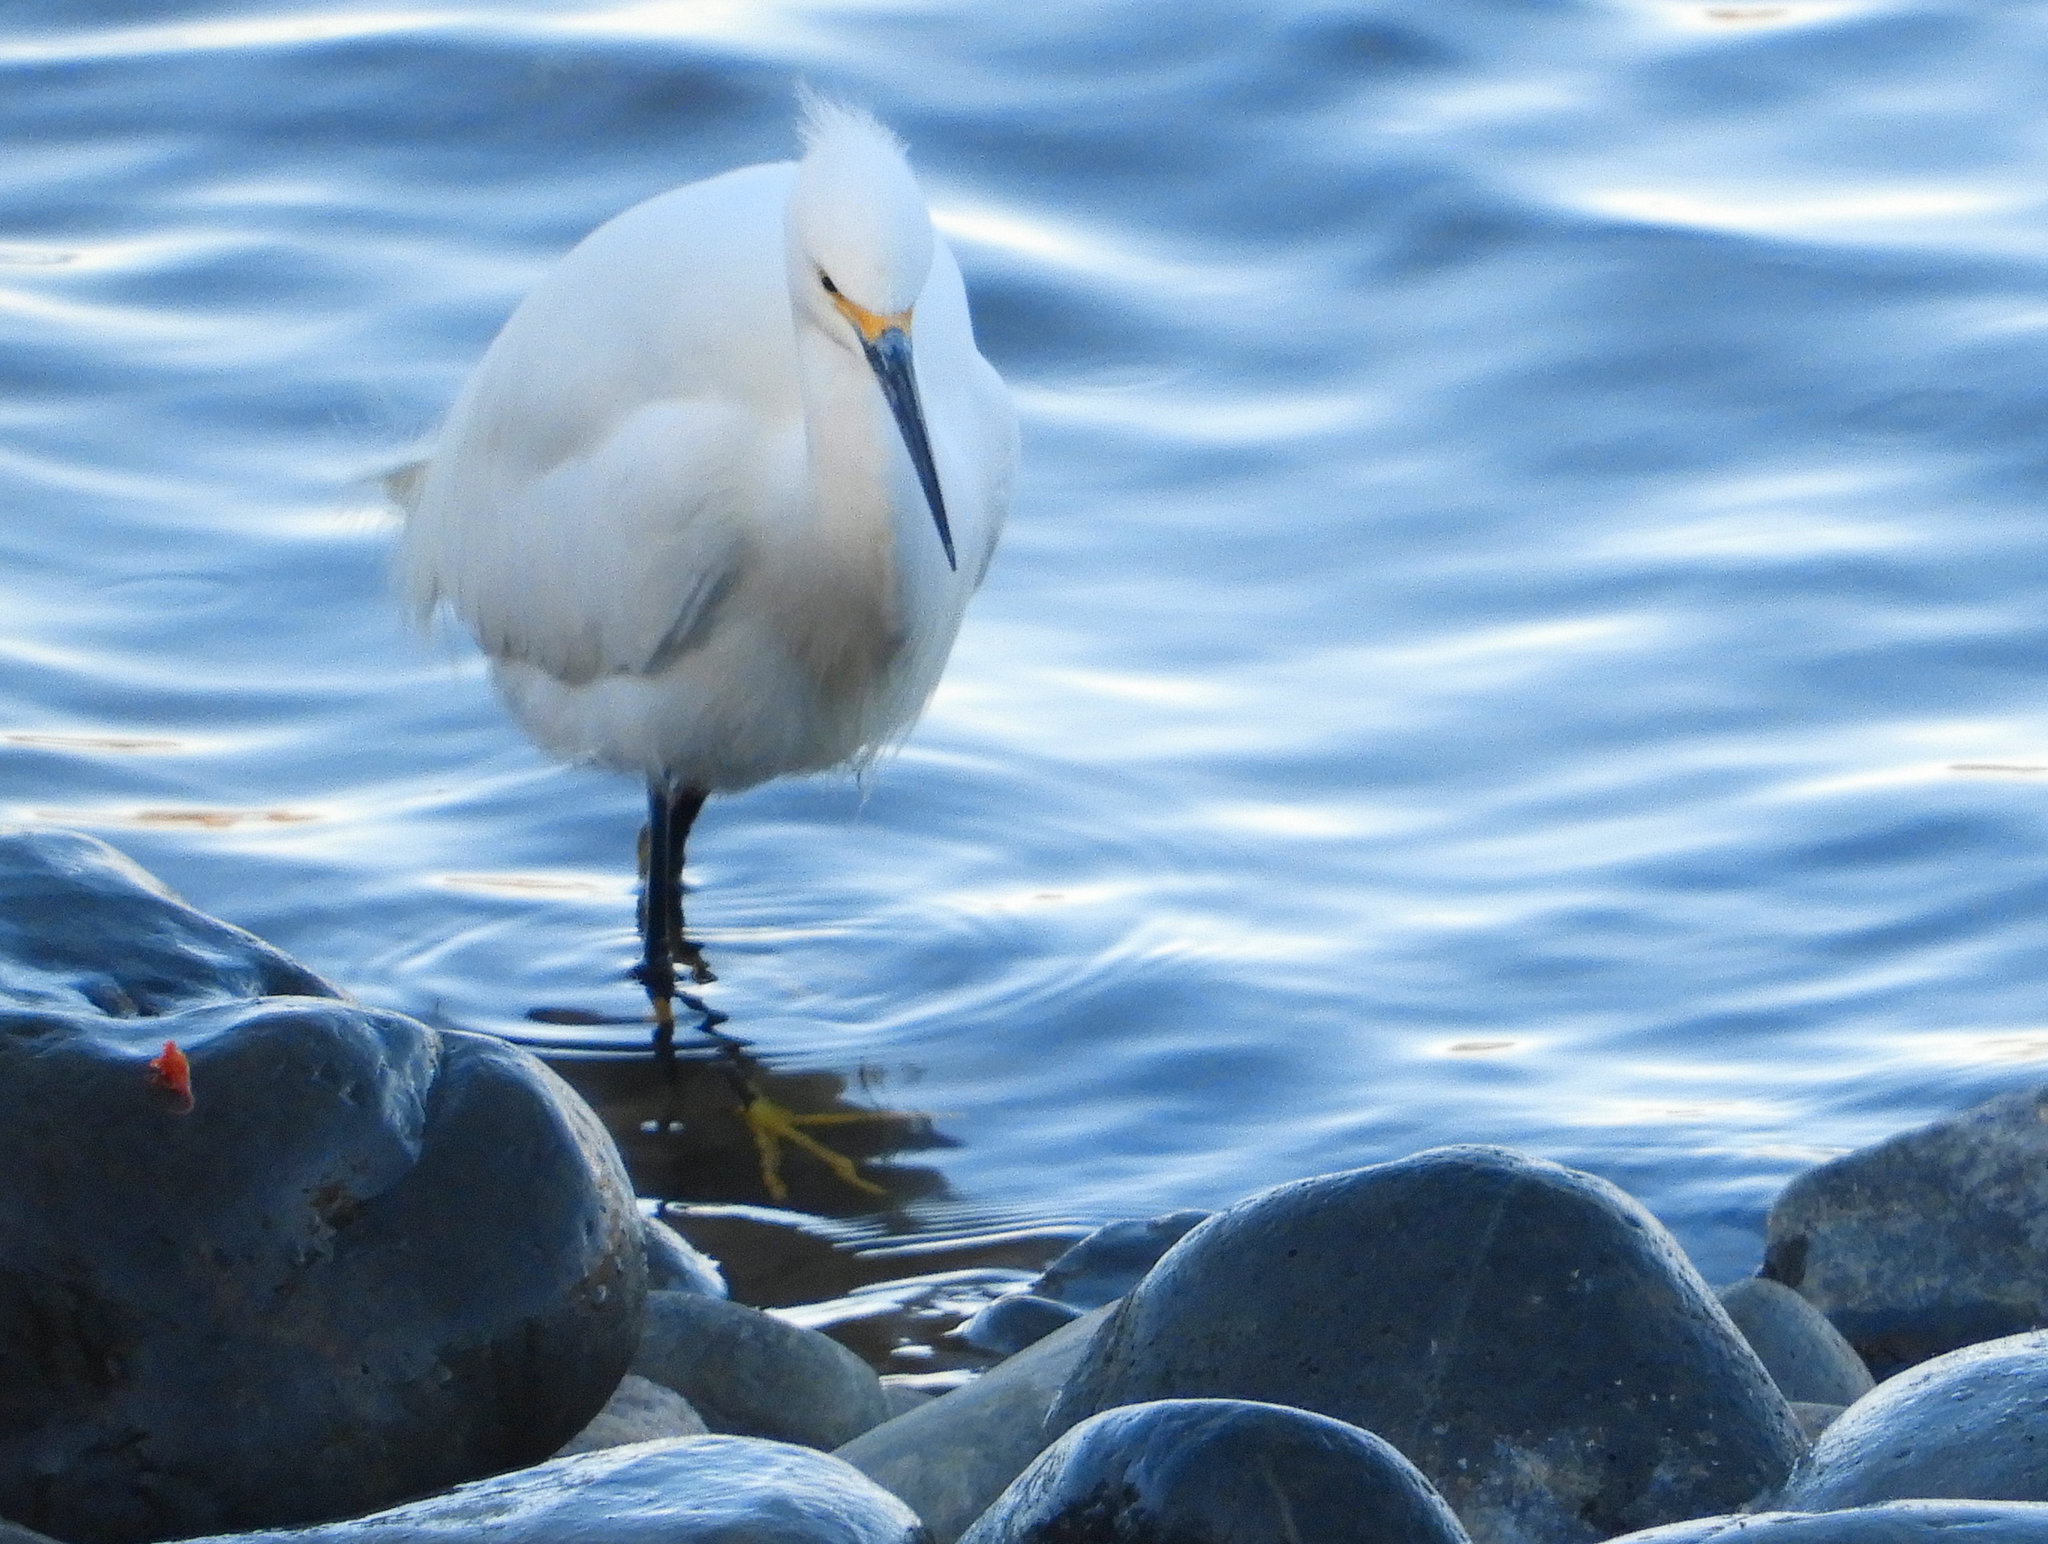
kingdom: Animalia
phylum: Chordata
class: Aves
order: Pelecaniformes
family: Ardeidae
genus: Egretta
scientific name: Egretta thula
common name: Snowy egret
